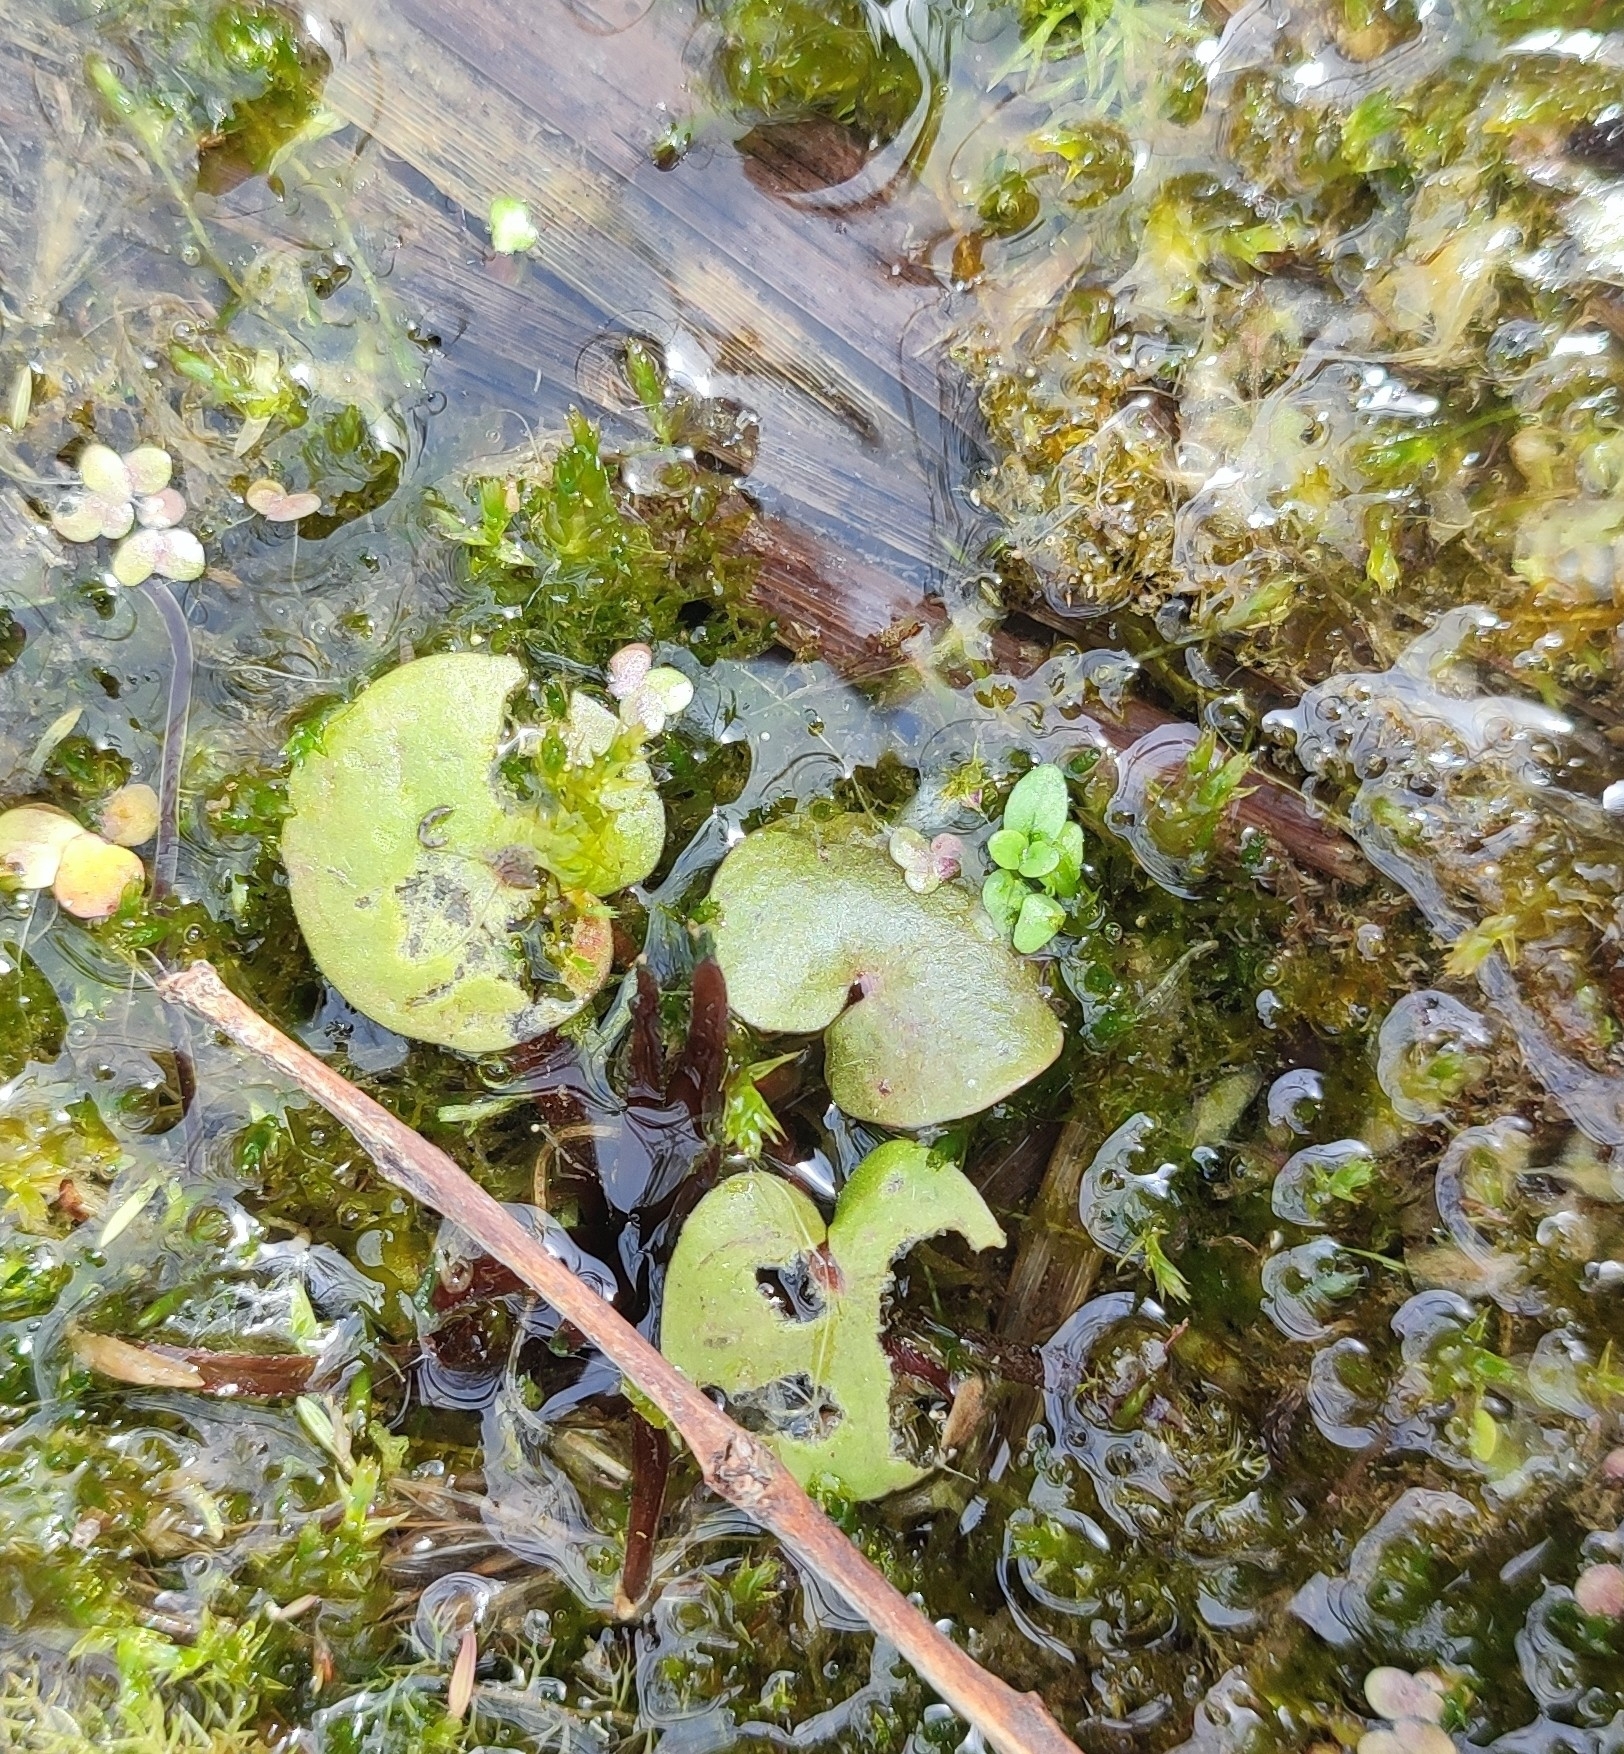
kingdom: Plantae
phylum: Tracheophyta
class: Liliopsida
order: Alismatales
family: Hydrocharitaceae
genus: Hydrocharis
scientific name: Hydrocharis morsus-ranae
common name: Frogbit
